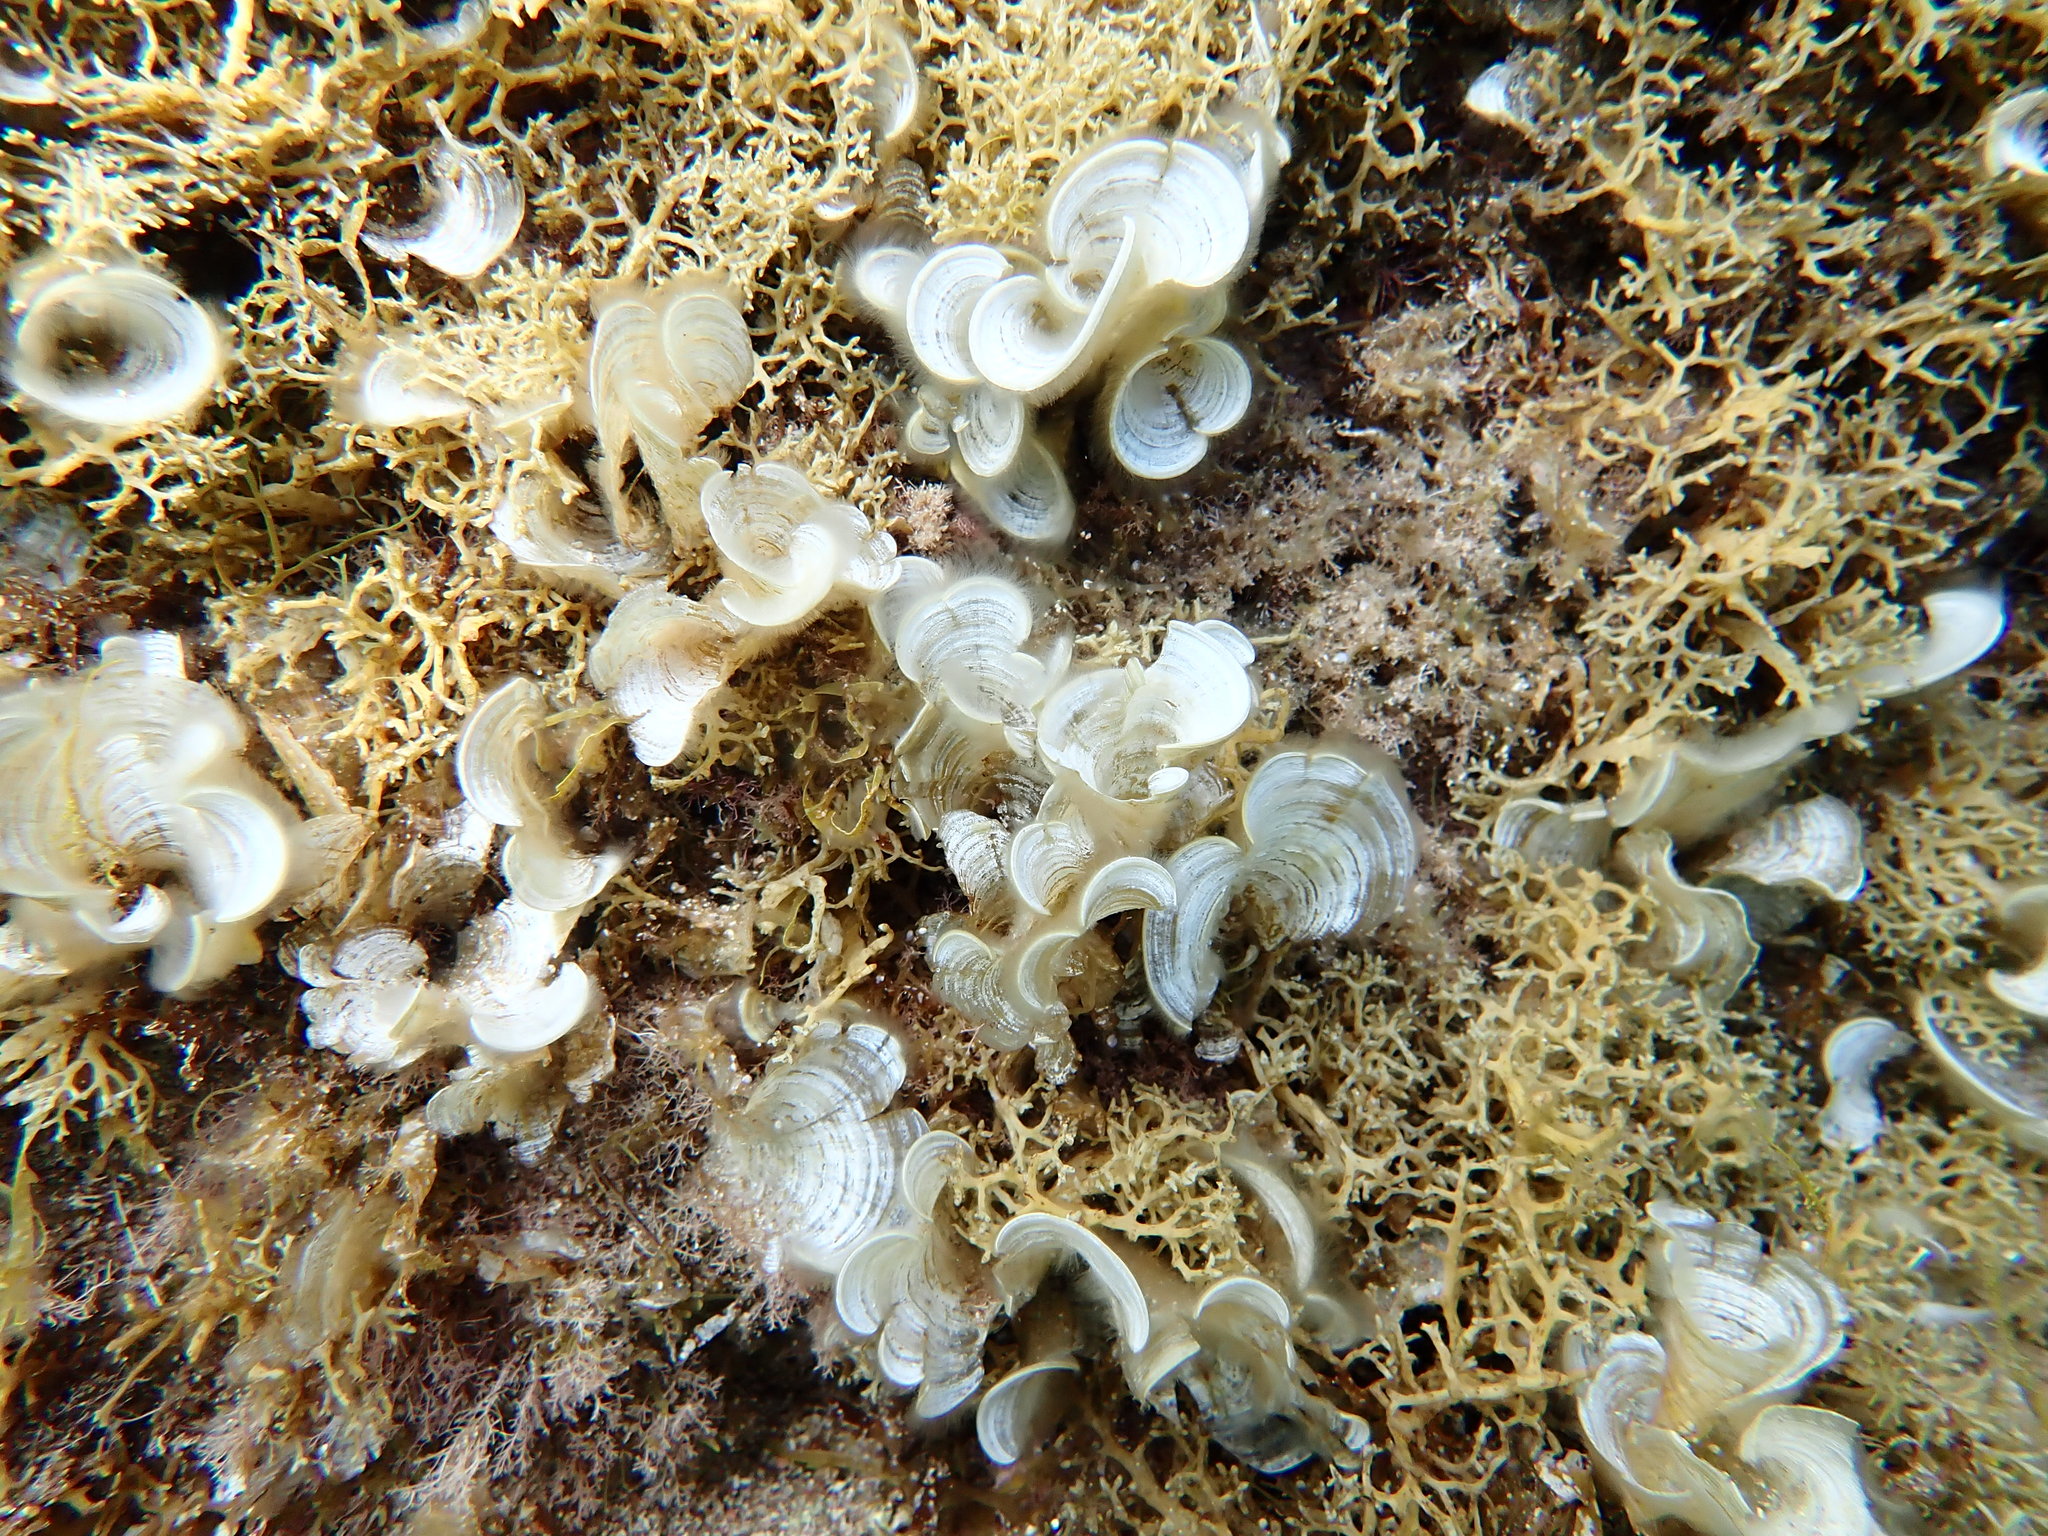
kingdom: Chromista
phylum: Ochrophyta
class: Phaeophyceae
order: Dictyotales
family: Dictyotaceae
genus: Padina
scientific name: Padina
